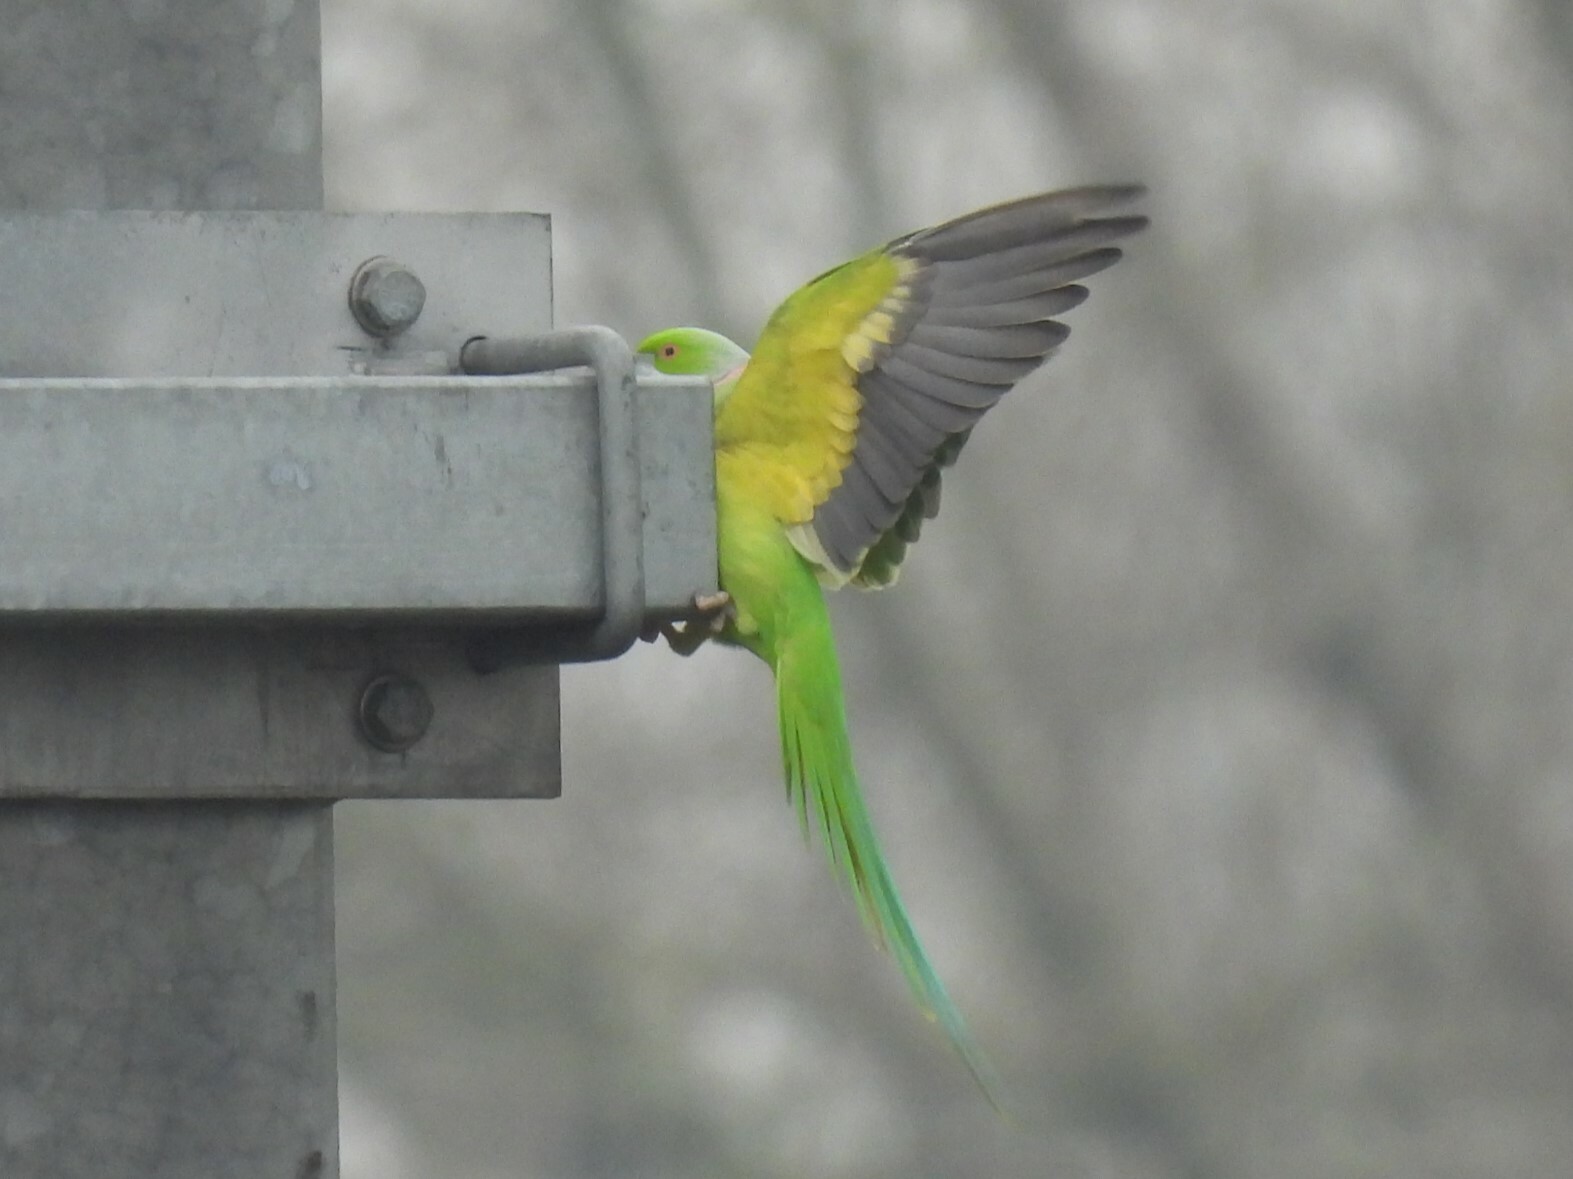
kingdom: Animalia
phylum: Chordata
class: Aves
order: Psittaciformes
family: Psittacidae
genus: Psittacula
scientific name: Psittacula krameri
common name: Rose-ringed parakeet
